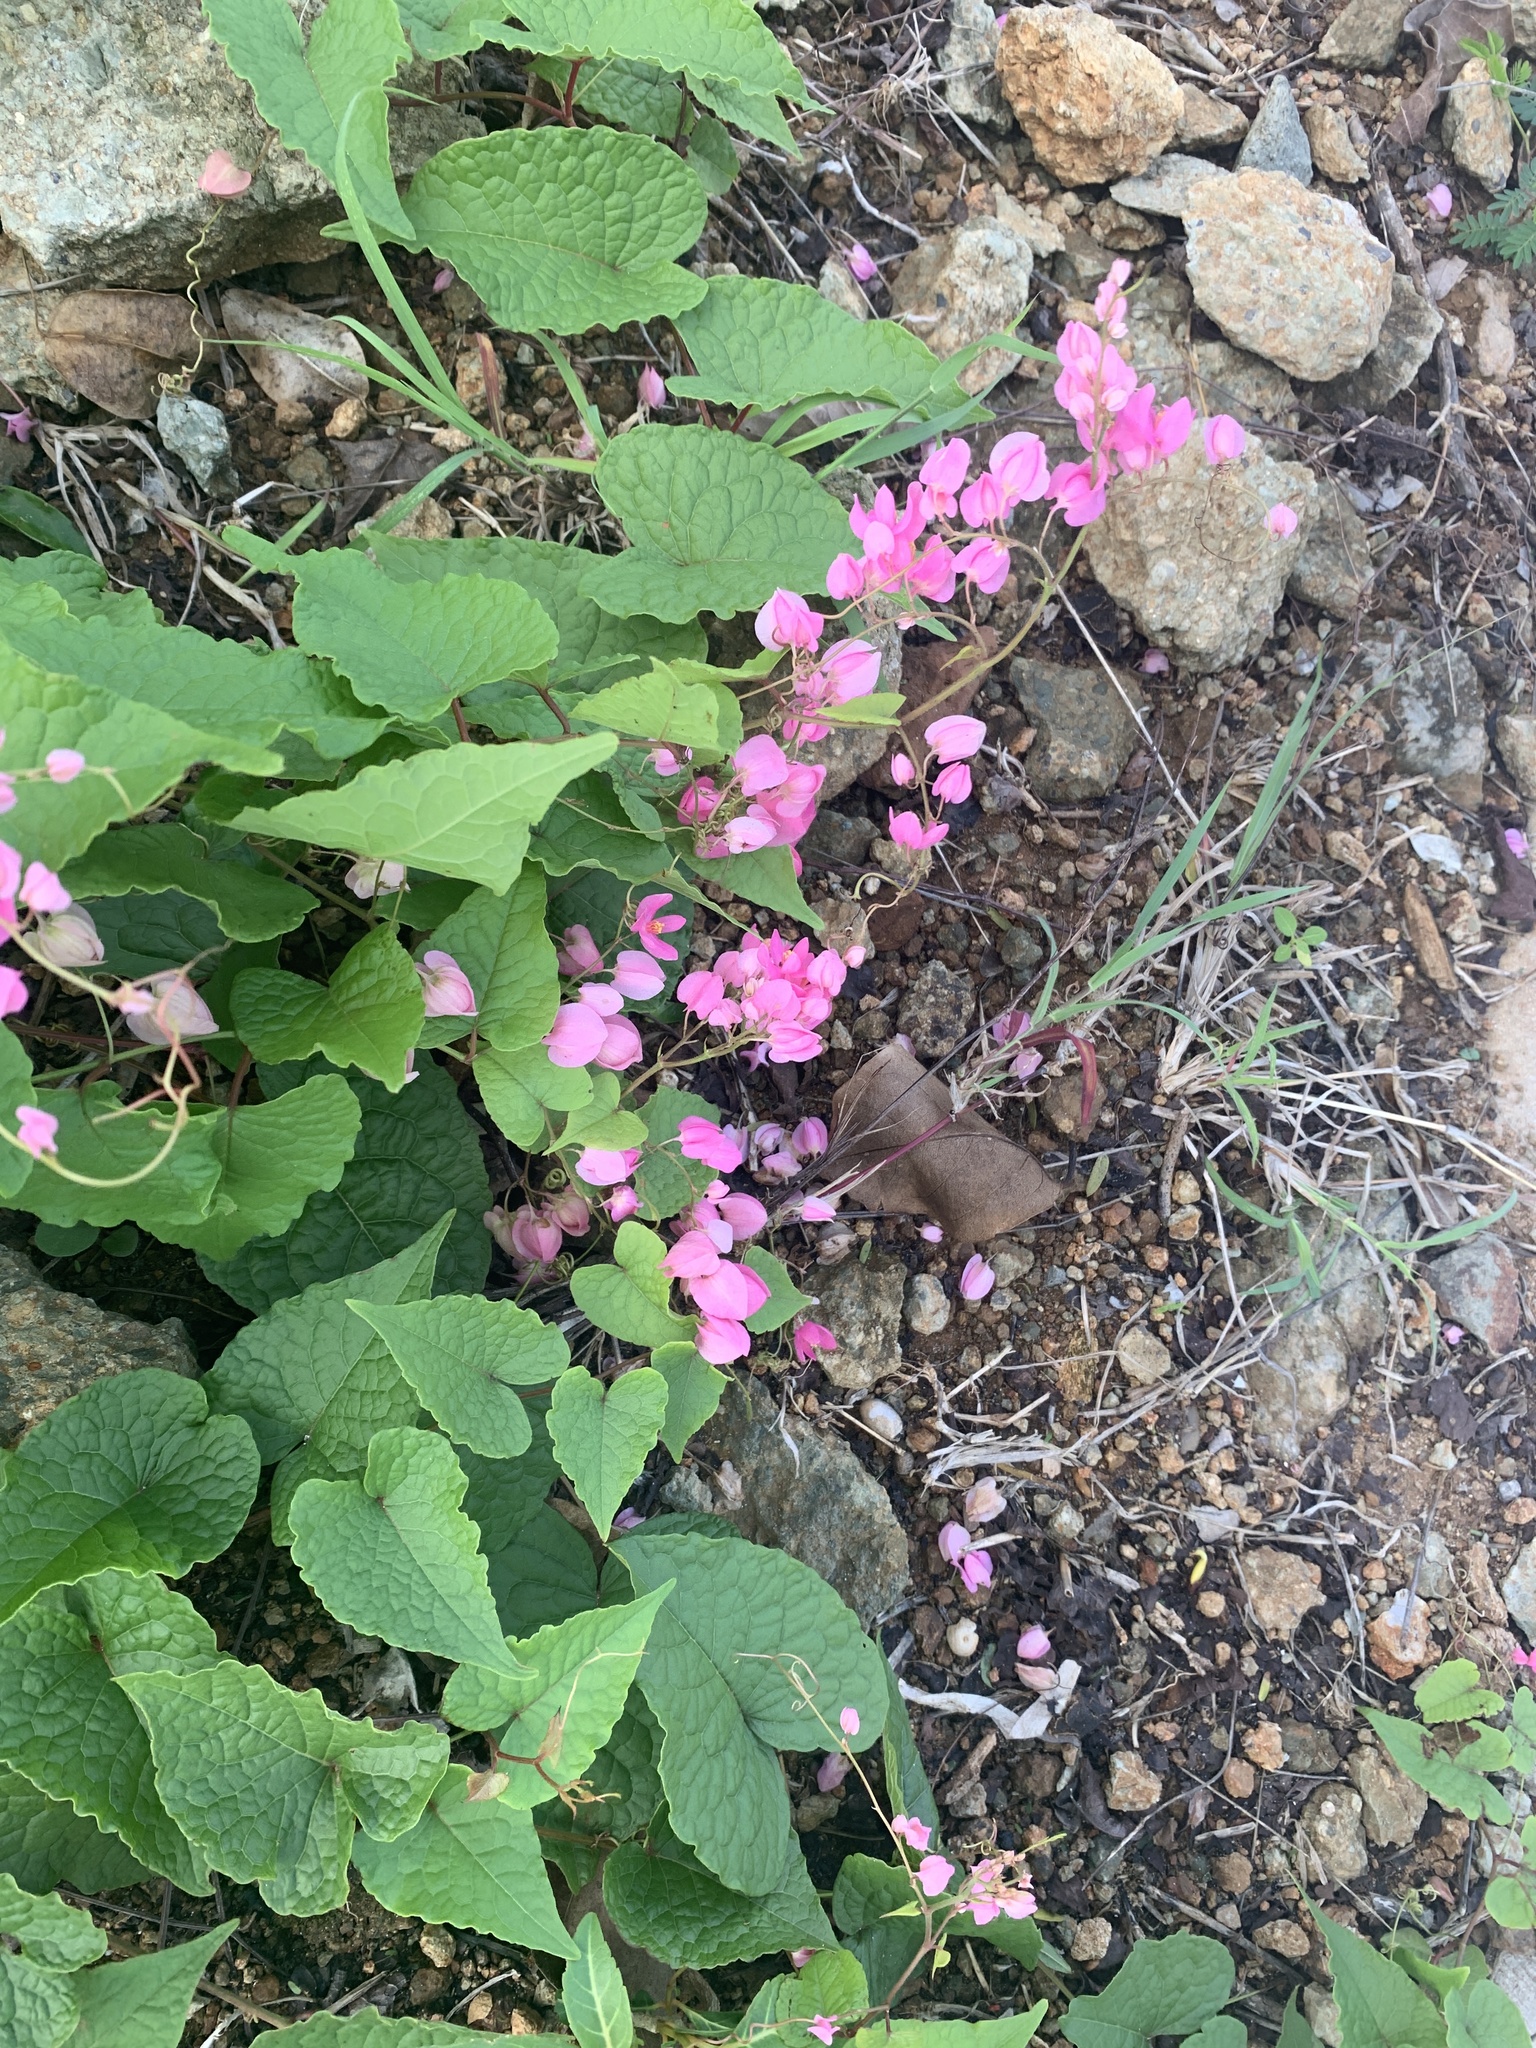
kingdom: Plantae
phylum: Tracheophyta
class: Magnoliopsida
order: Caryophyllales
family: Polygonaceae
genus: Antigonon
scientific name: Antigonon leptopus
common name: Coral vine
